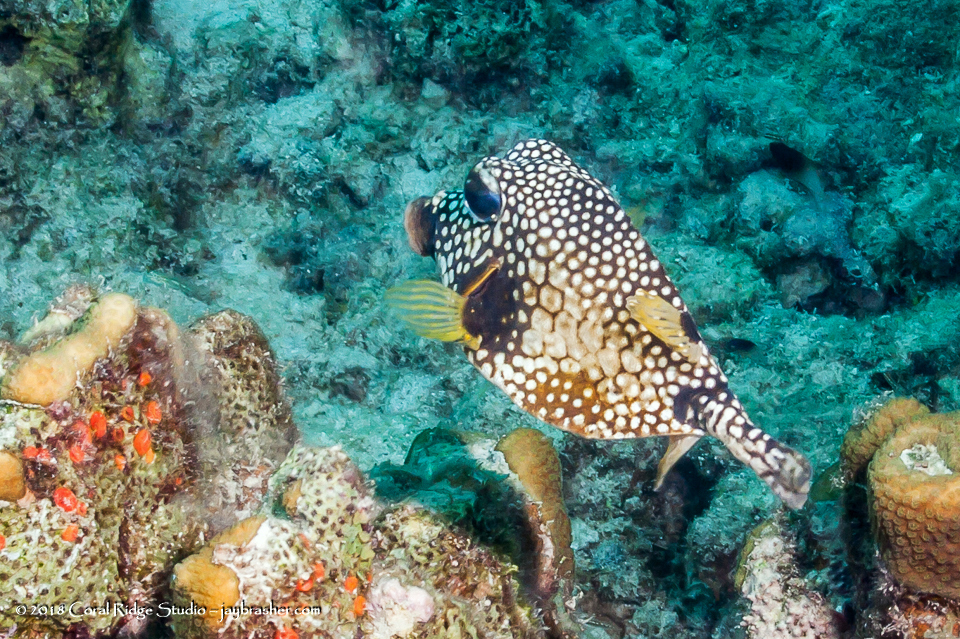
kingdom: Animalia
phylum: Chordata
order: Tetraodontiformes
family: Ostraciidae
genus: Lactophrys
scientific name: Lactophrys triqueter
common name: Smooth trunkfish
